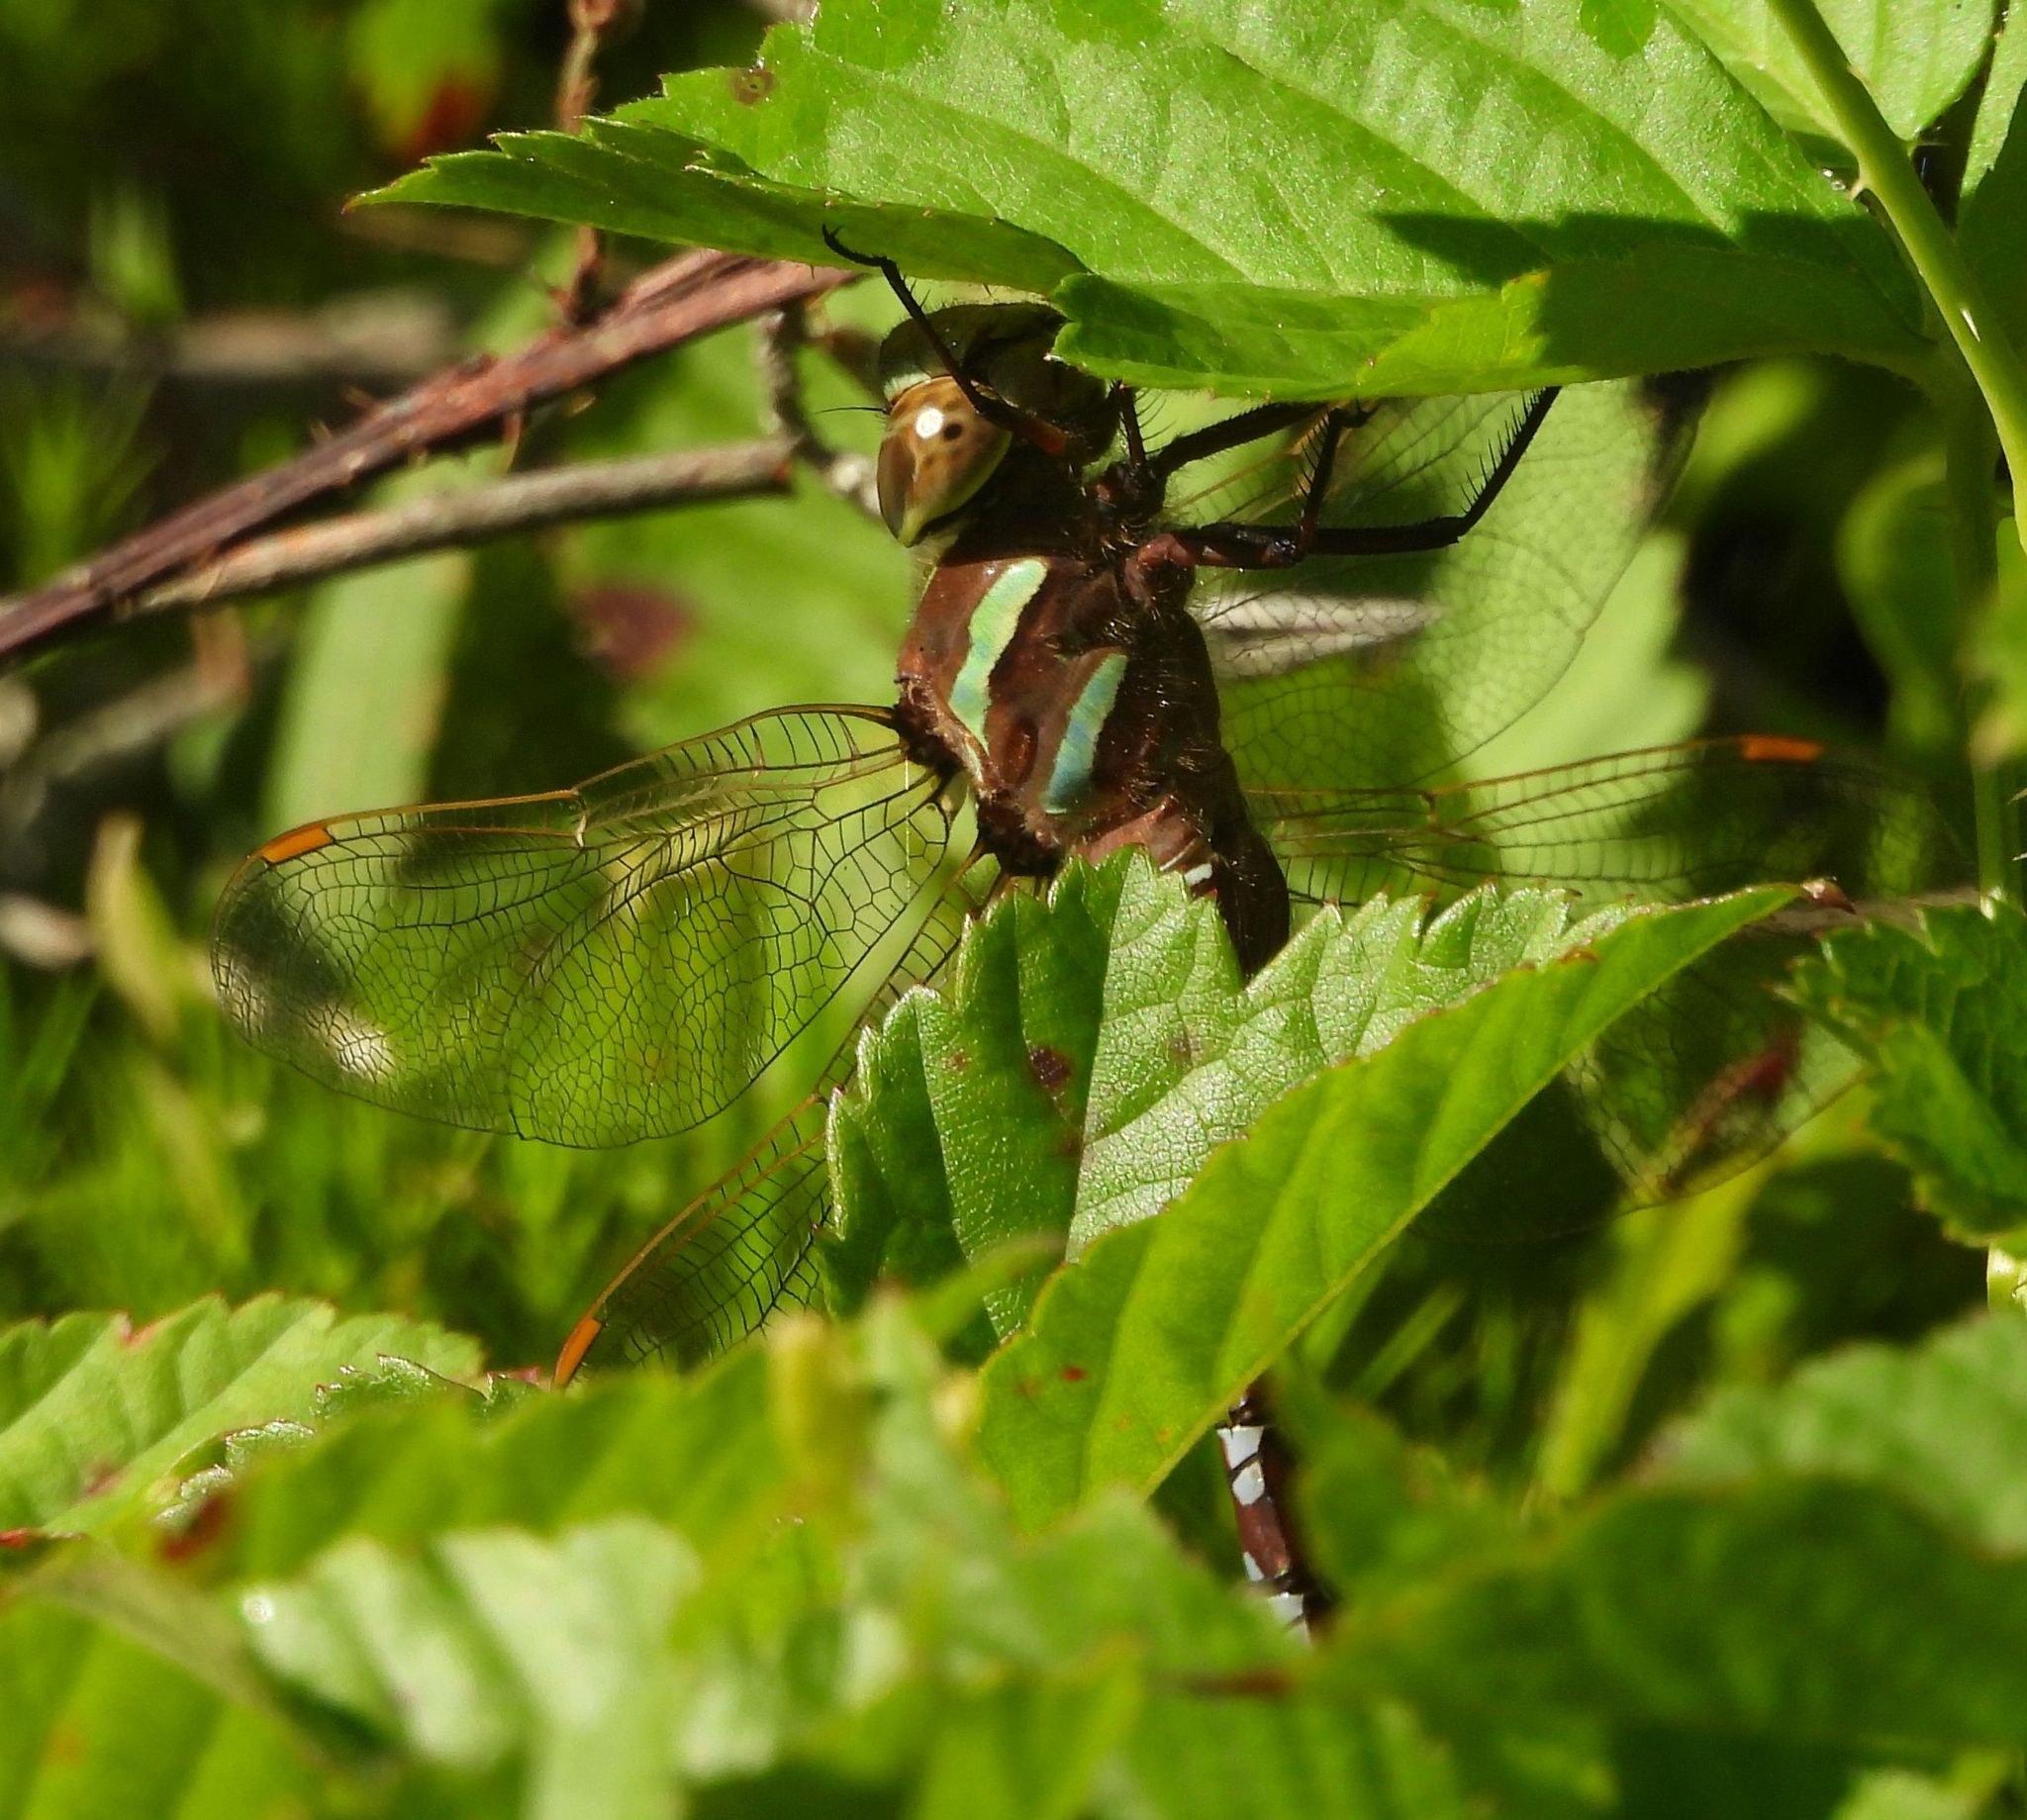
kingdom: Animalia
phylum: Arthropoda
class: Insecta
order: Odonata
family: Aeshnidae
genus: Aeshna
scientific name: Aeshna constricta
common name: Lance-tipped darner
